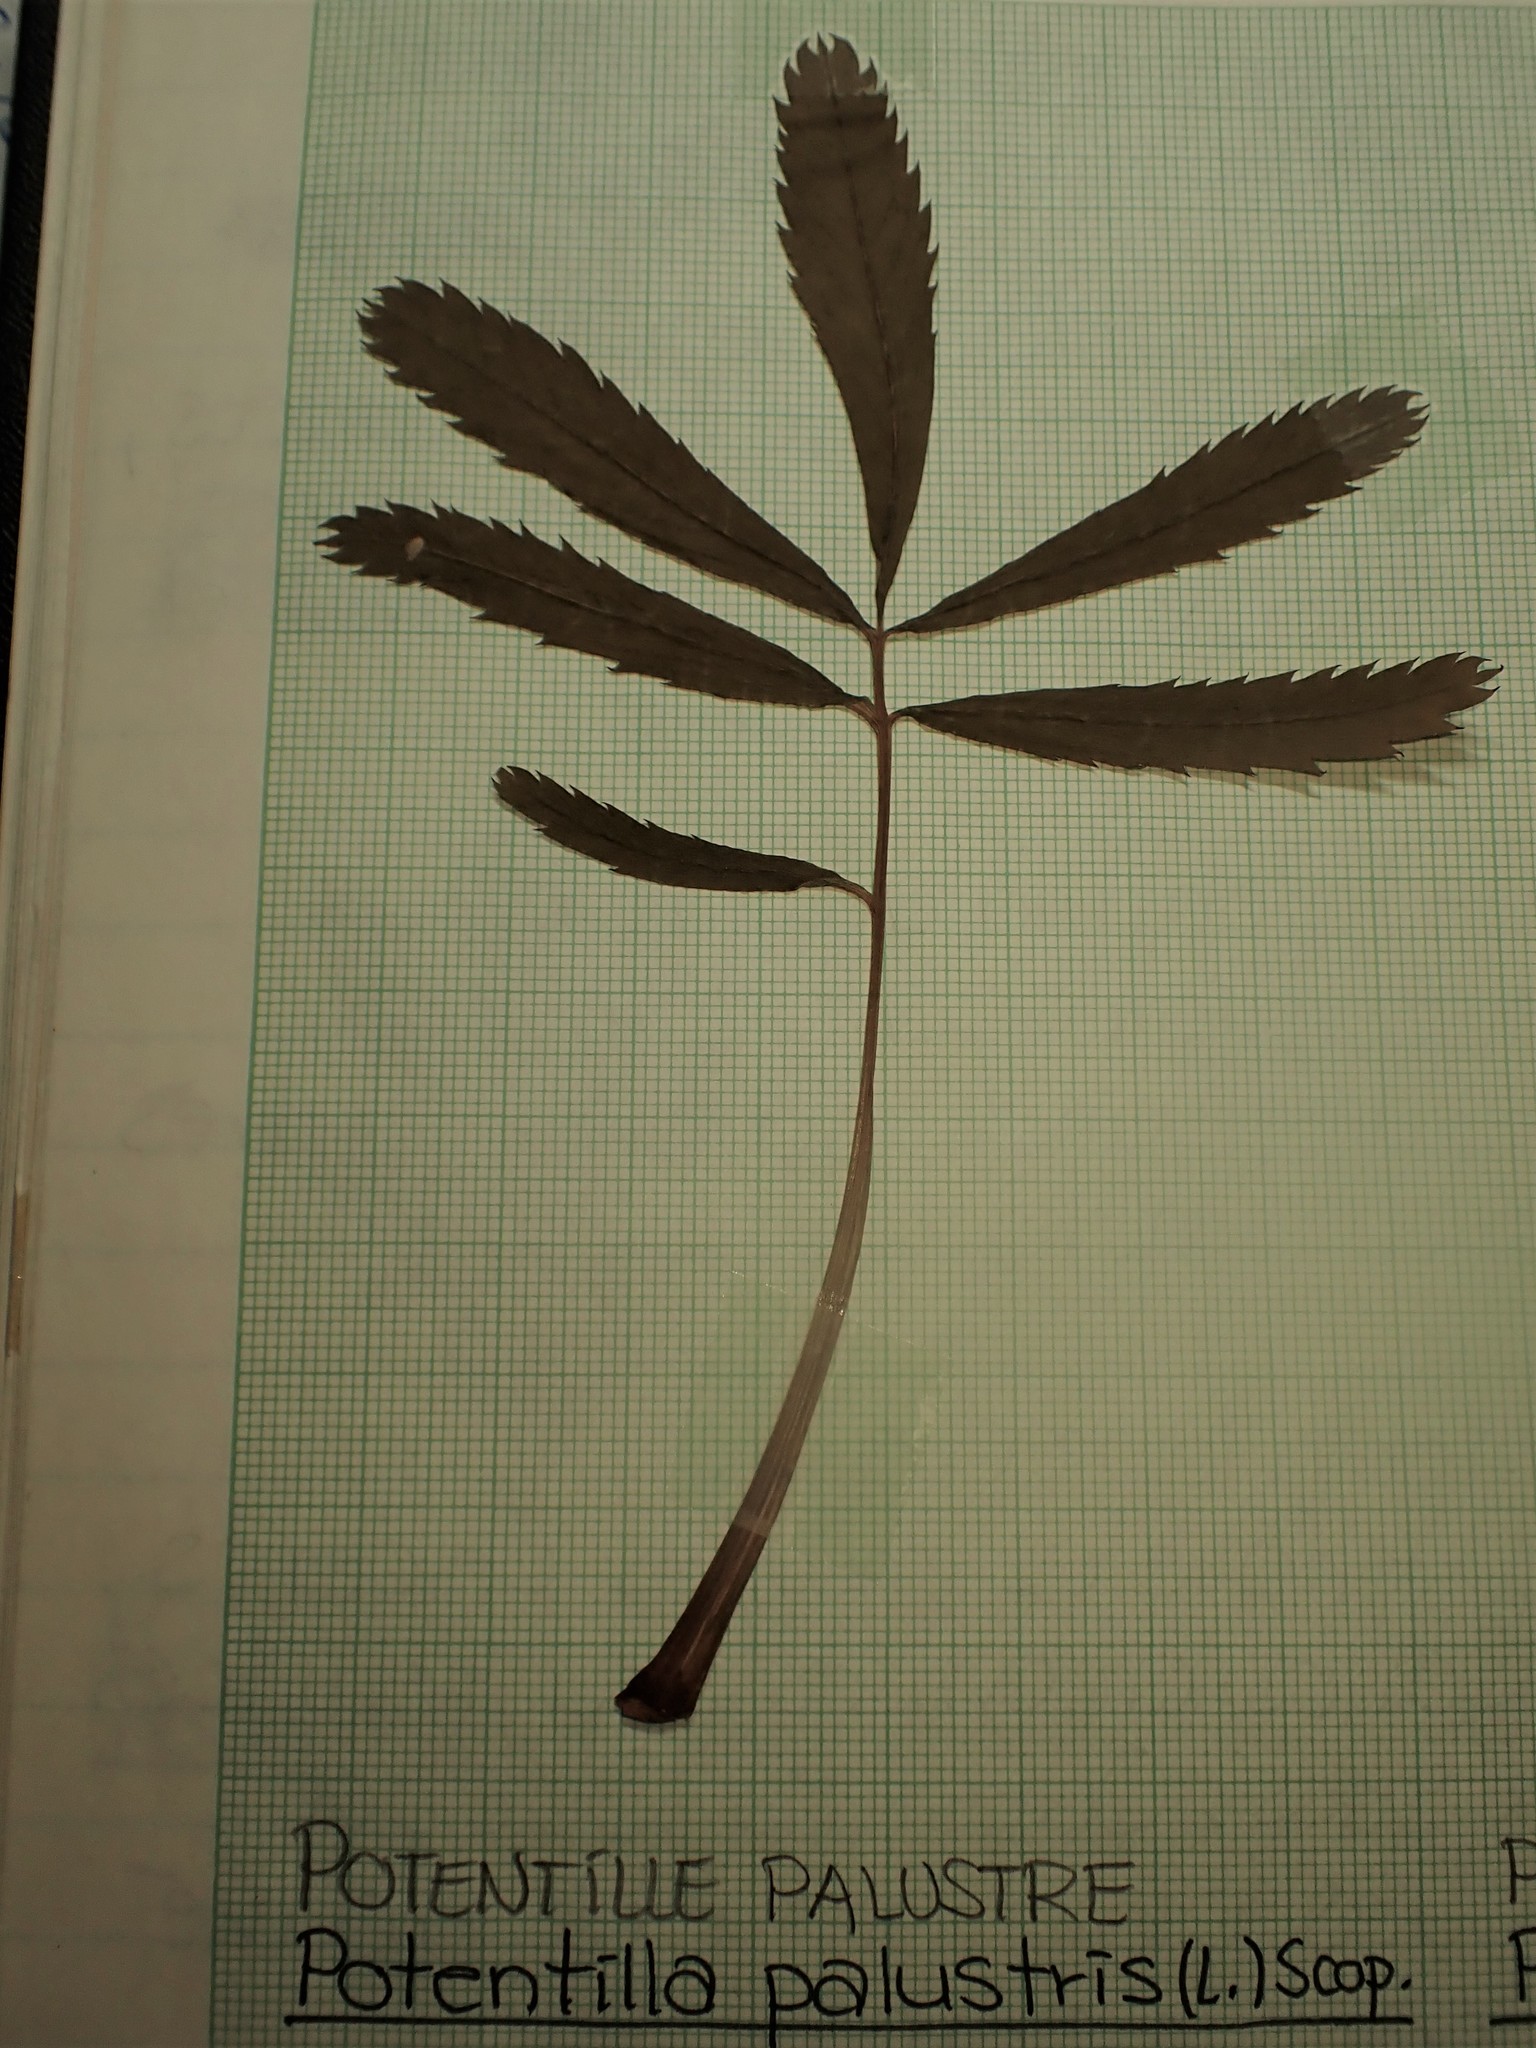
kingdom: Plantae
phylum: Tracheophyta
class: Magnoliopsida
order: Rosales
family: Rosaceae
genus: Comarum
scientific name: Comarum palustre
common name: Marsh cinquefoil
